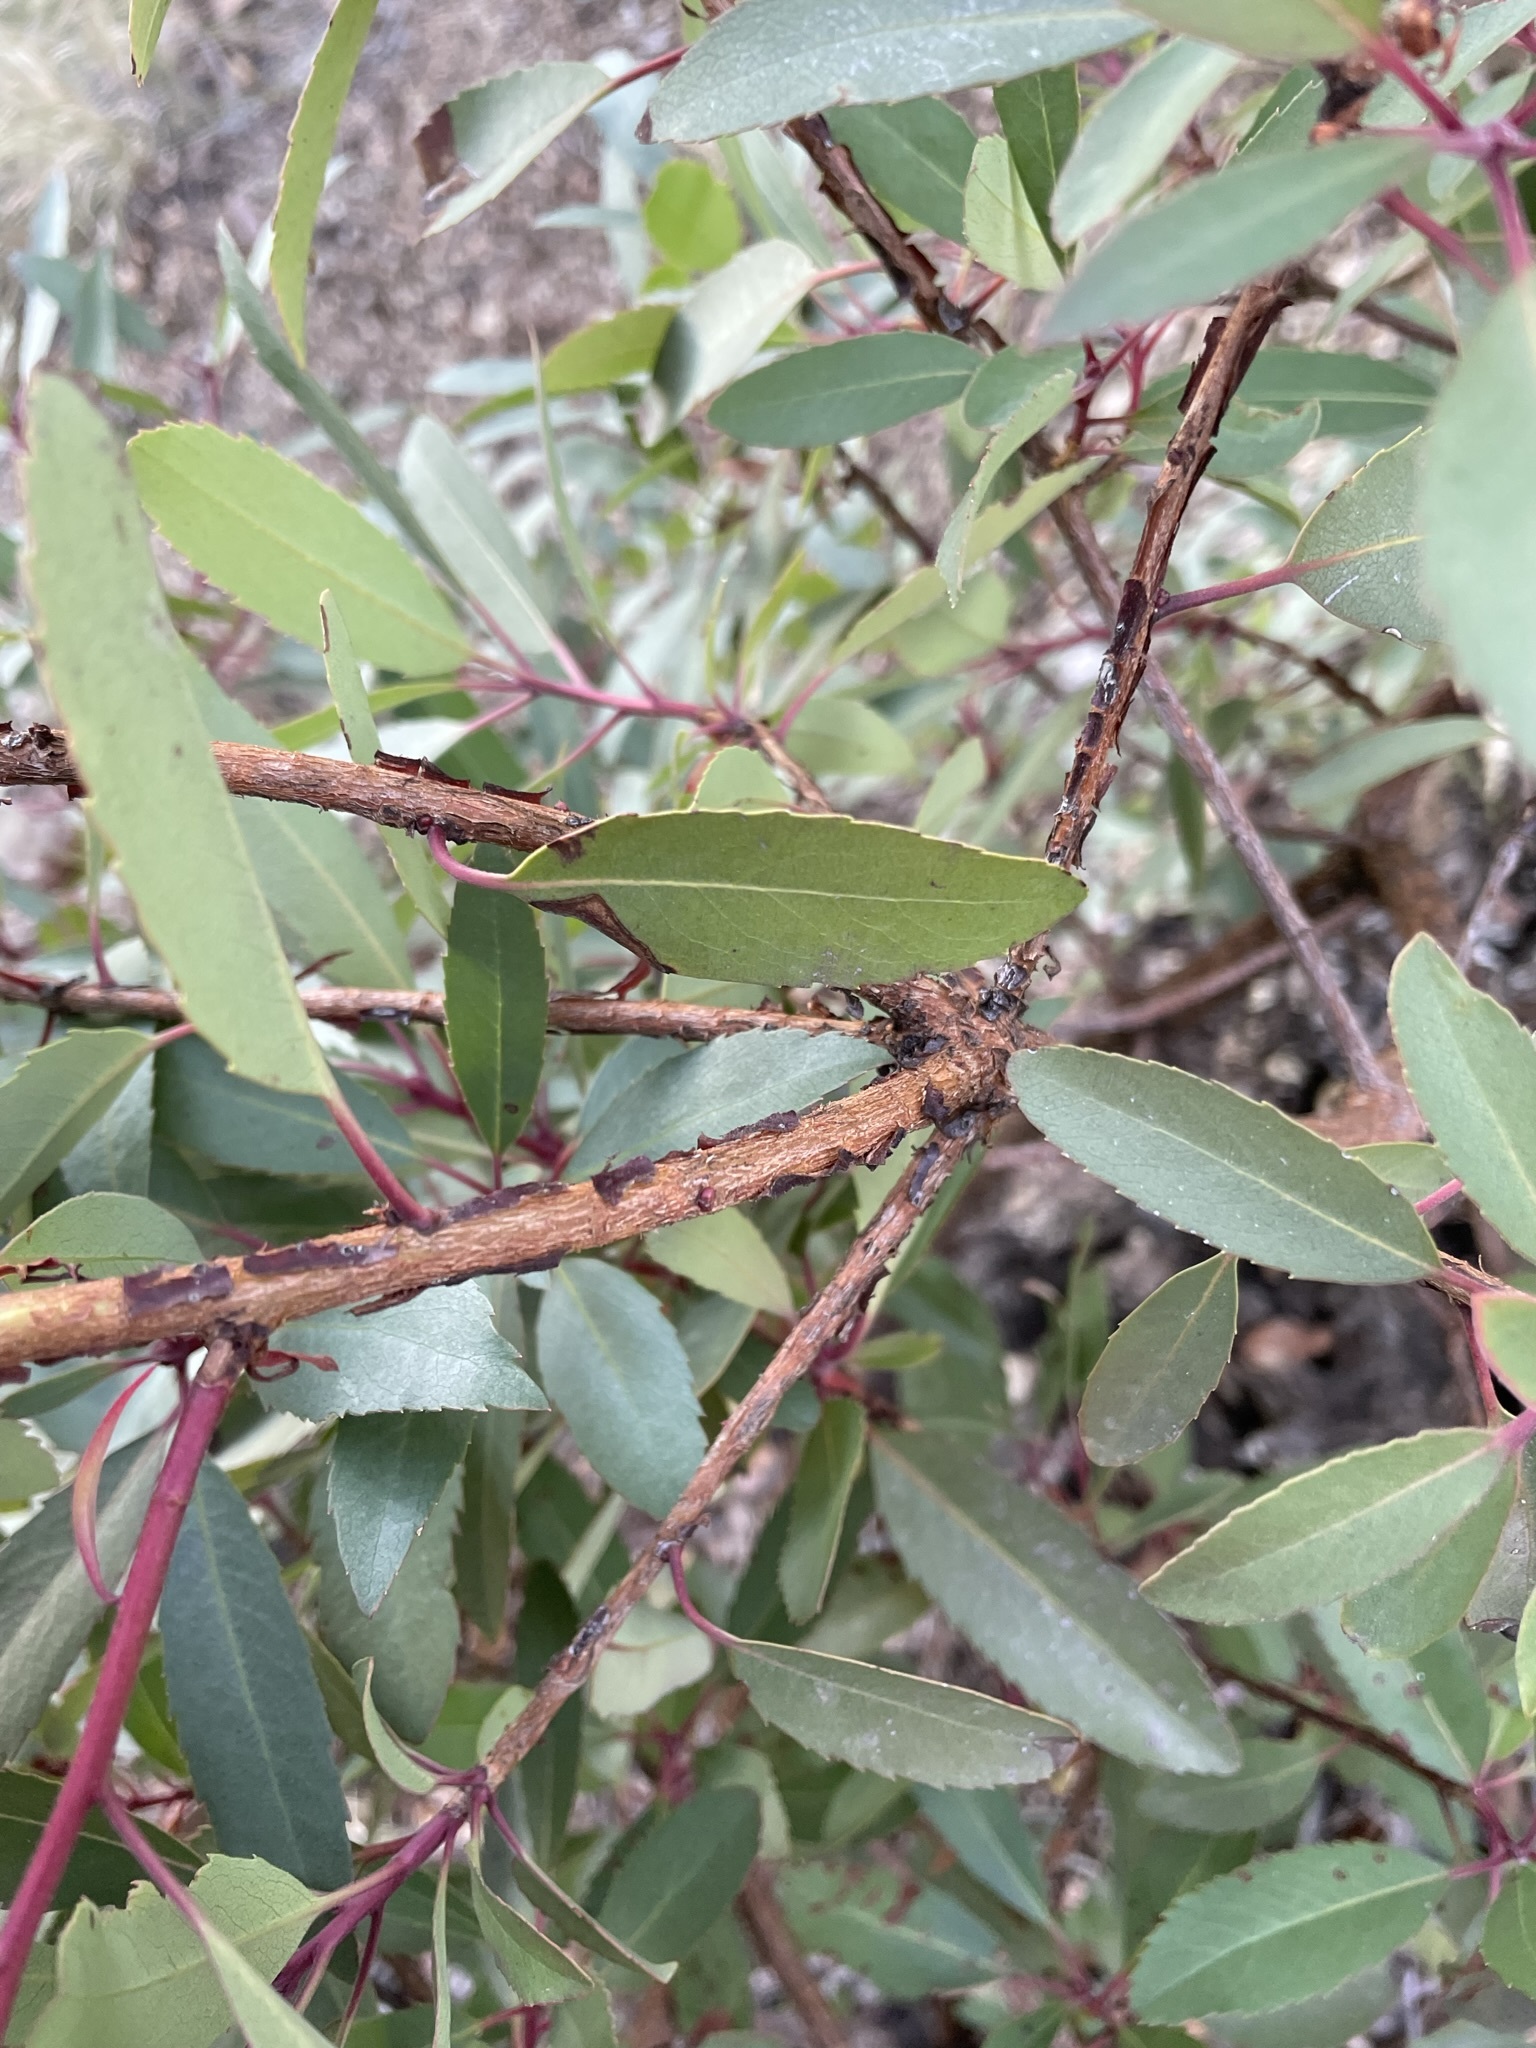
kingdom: Plantae
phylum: Tracheophyta
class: Magnoliopsida
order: Ericales
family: Ericaceae
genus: Arbutus
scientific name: Arbutus arizonica
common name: Arizona madrone
